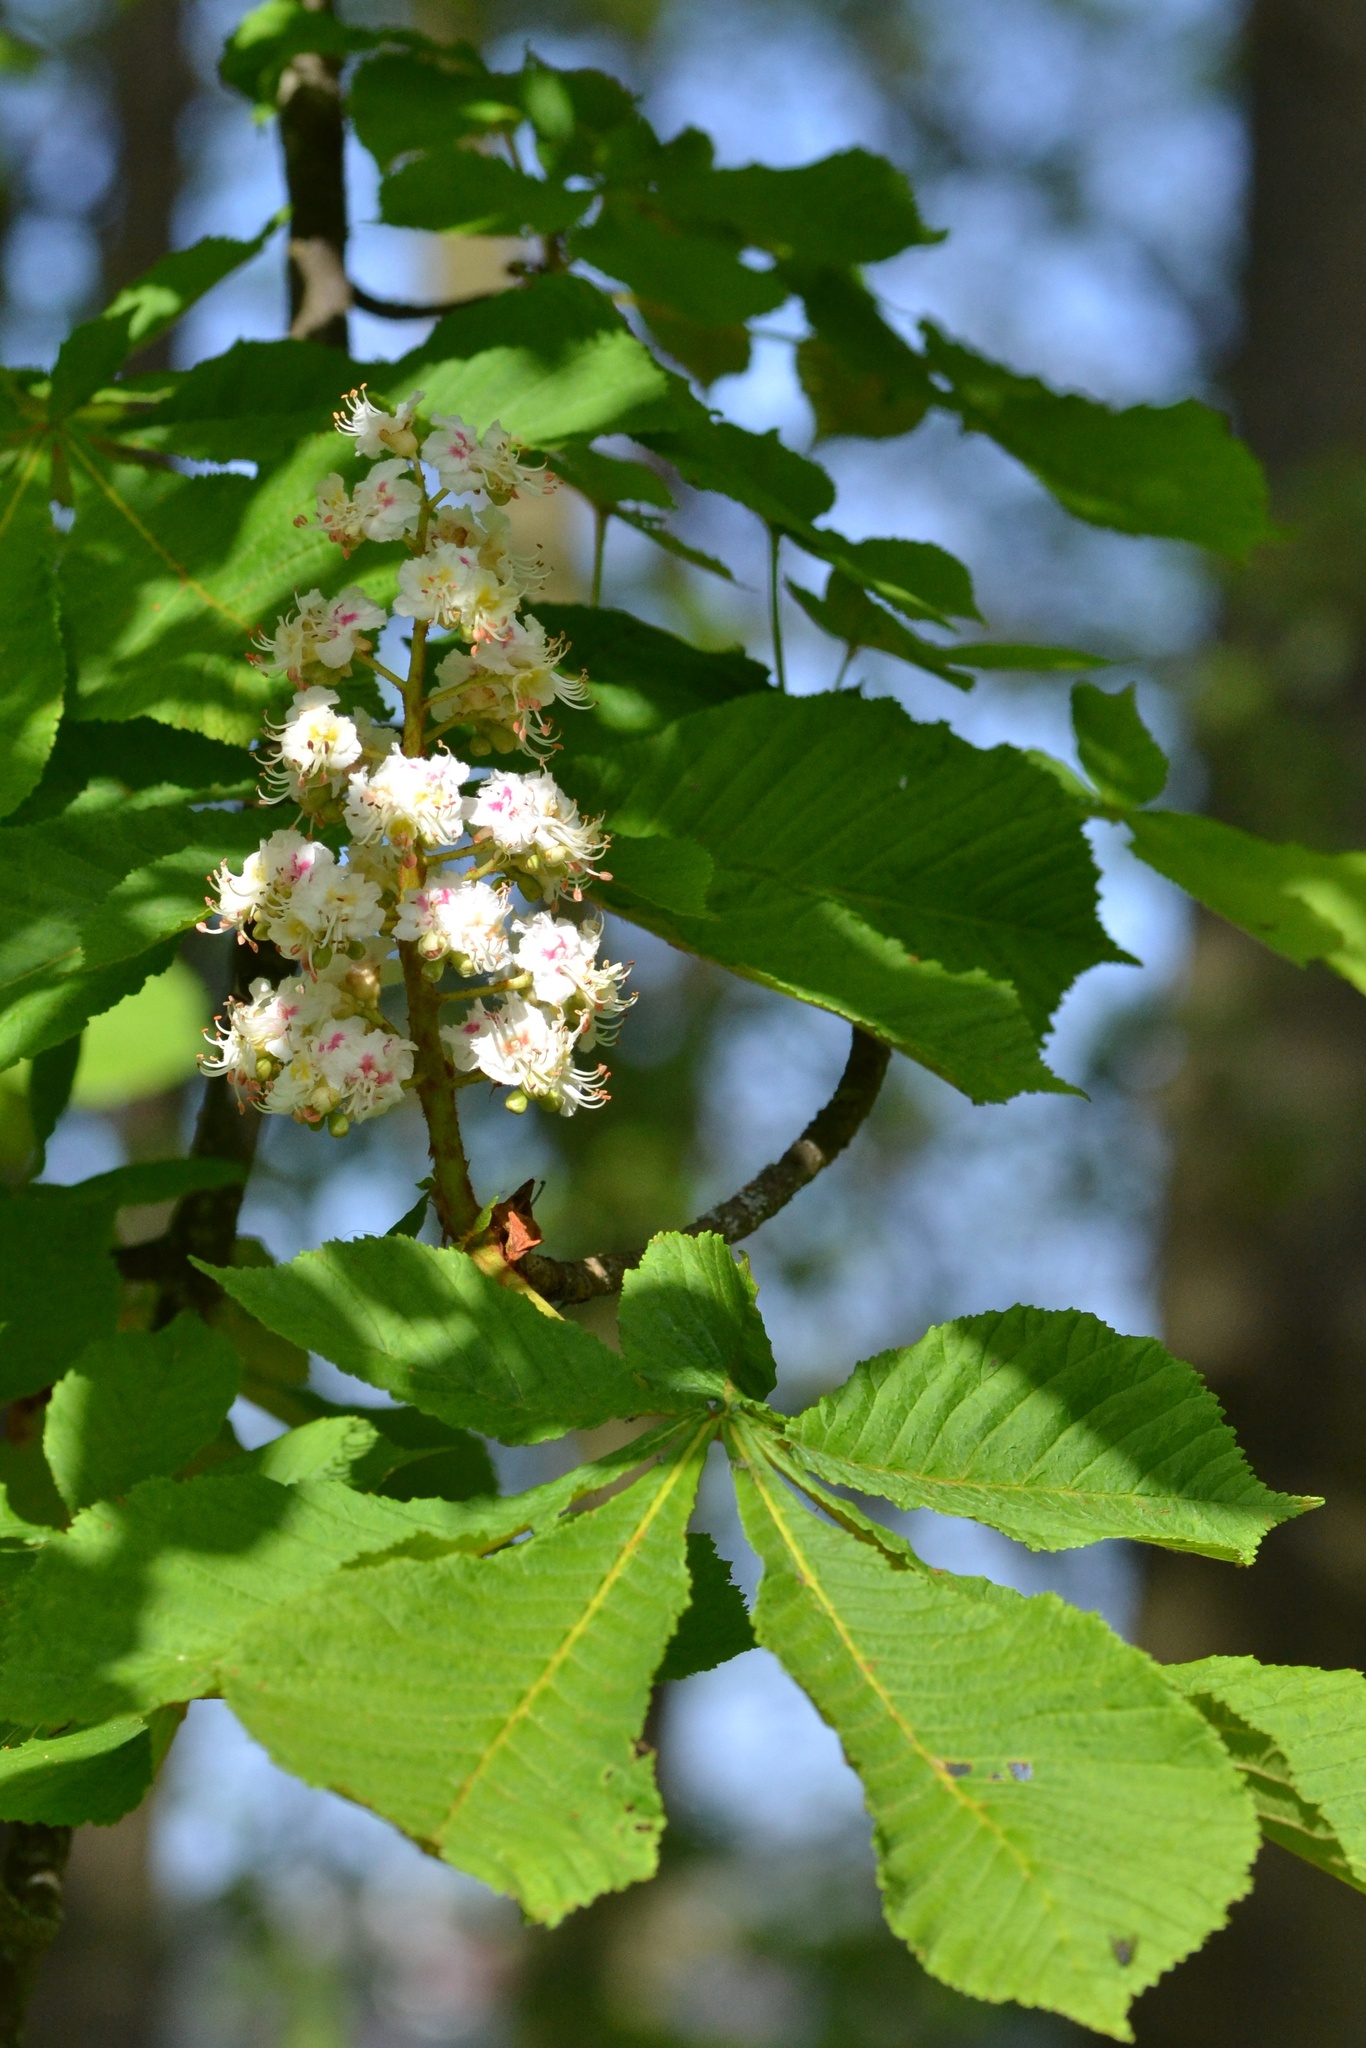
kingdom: Plantae
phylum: Tracheophyta
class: Magnoliopsida
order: Sapindales
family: Sapindaceae
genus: Aesculus
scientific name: Aesculus hippocastanum
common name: Horse-chestnut
